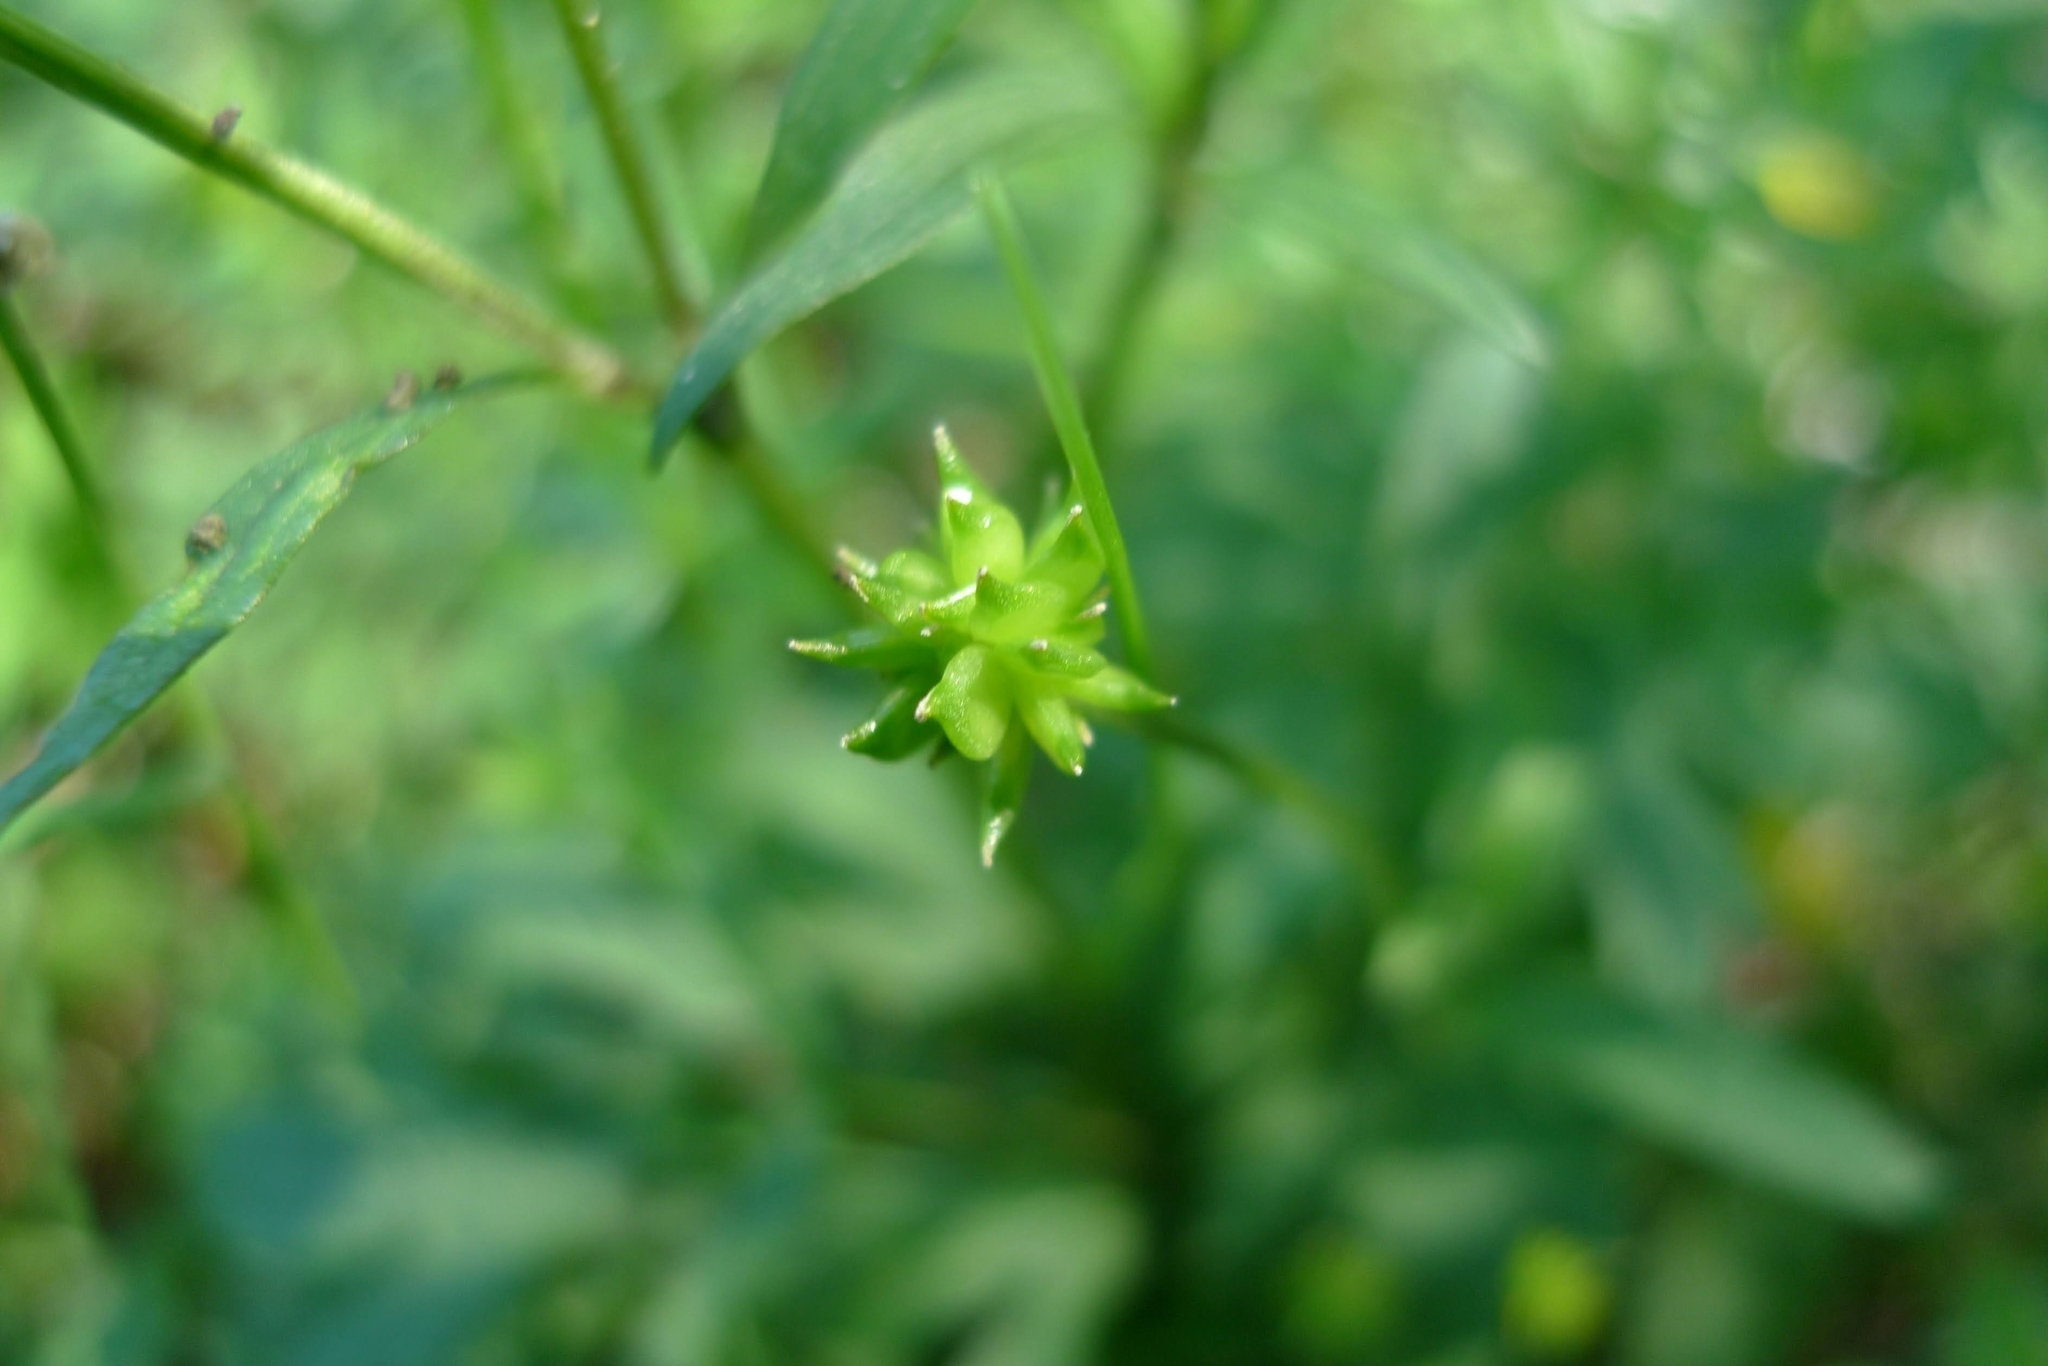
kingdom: Plantae
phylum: Tracheophyta
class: Magnoliopsida
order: Ranunculales
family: Ranunculaceae
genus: Ranunculus
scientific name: Ranunculus repens
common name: Creeping buttercup
